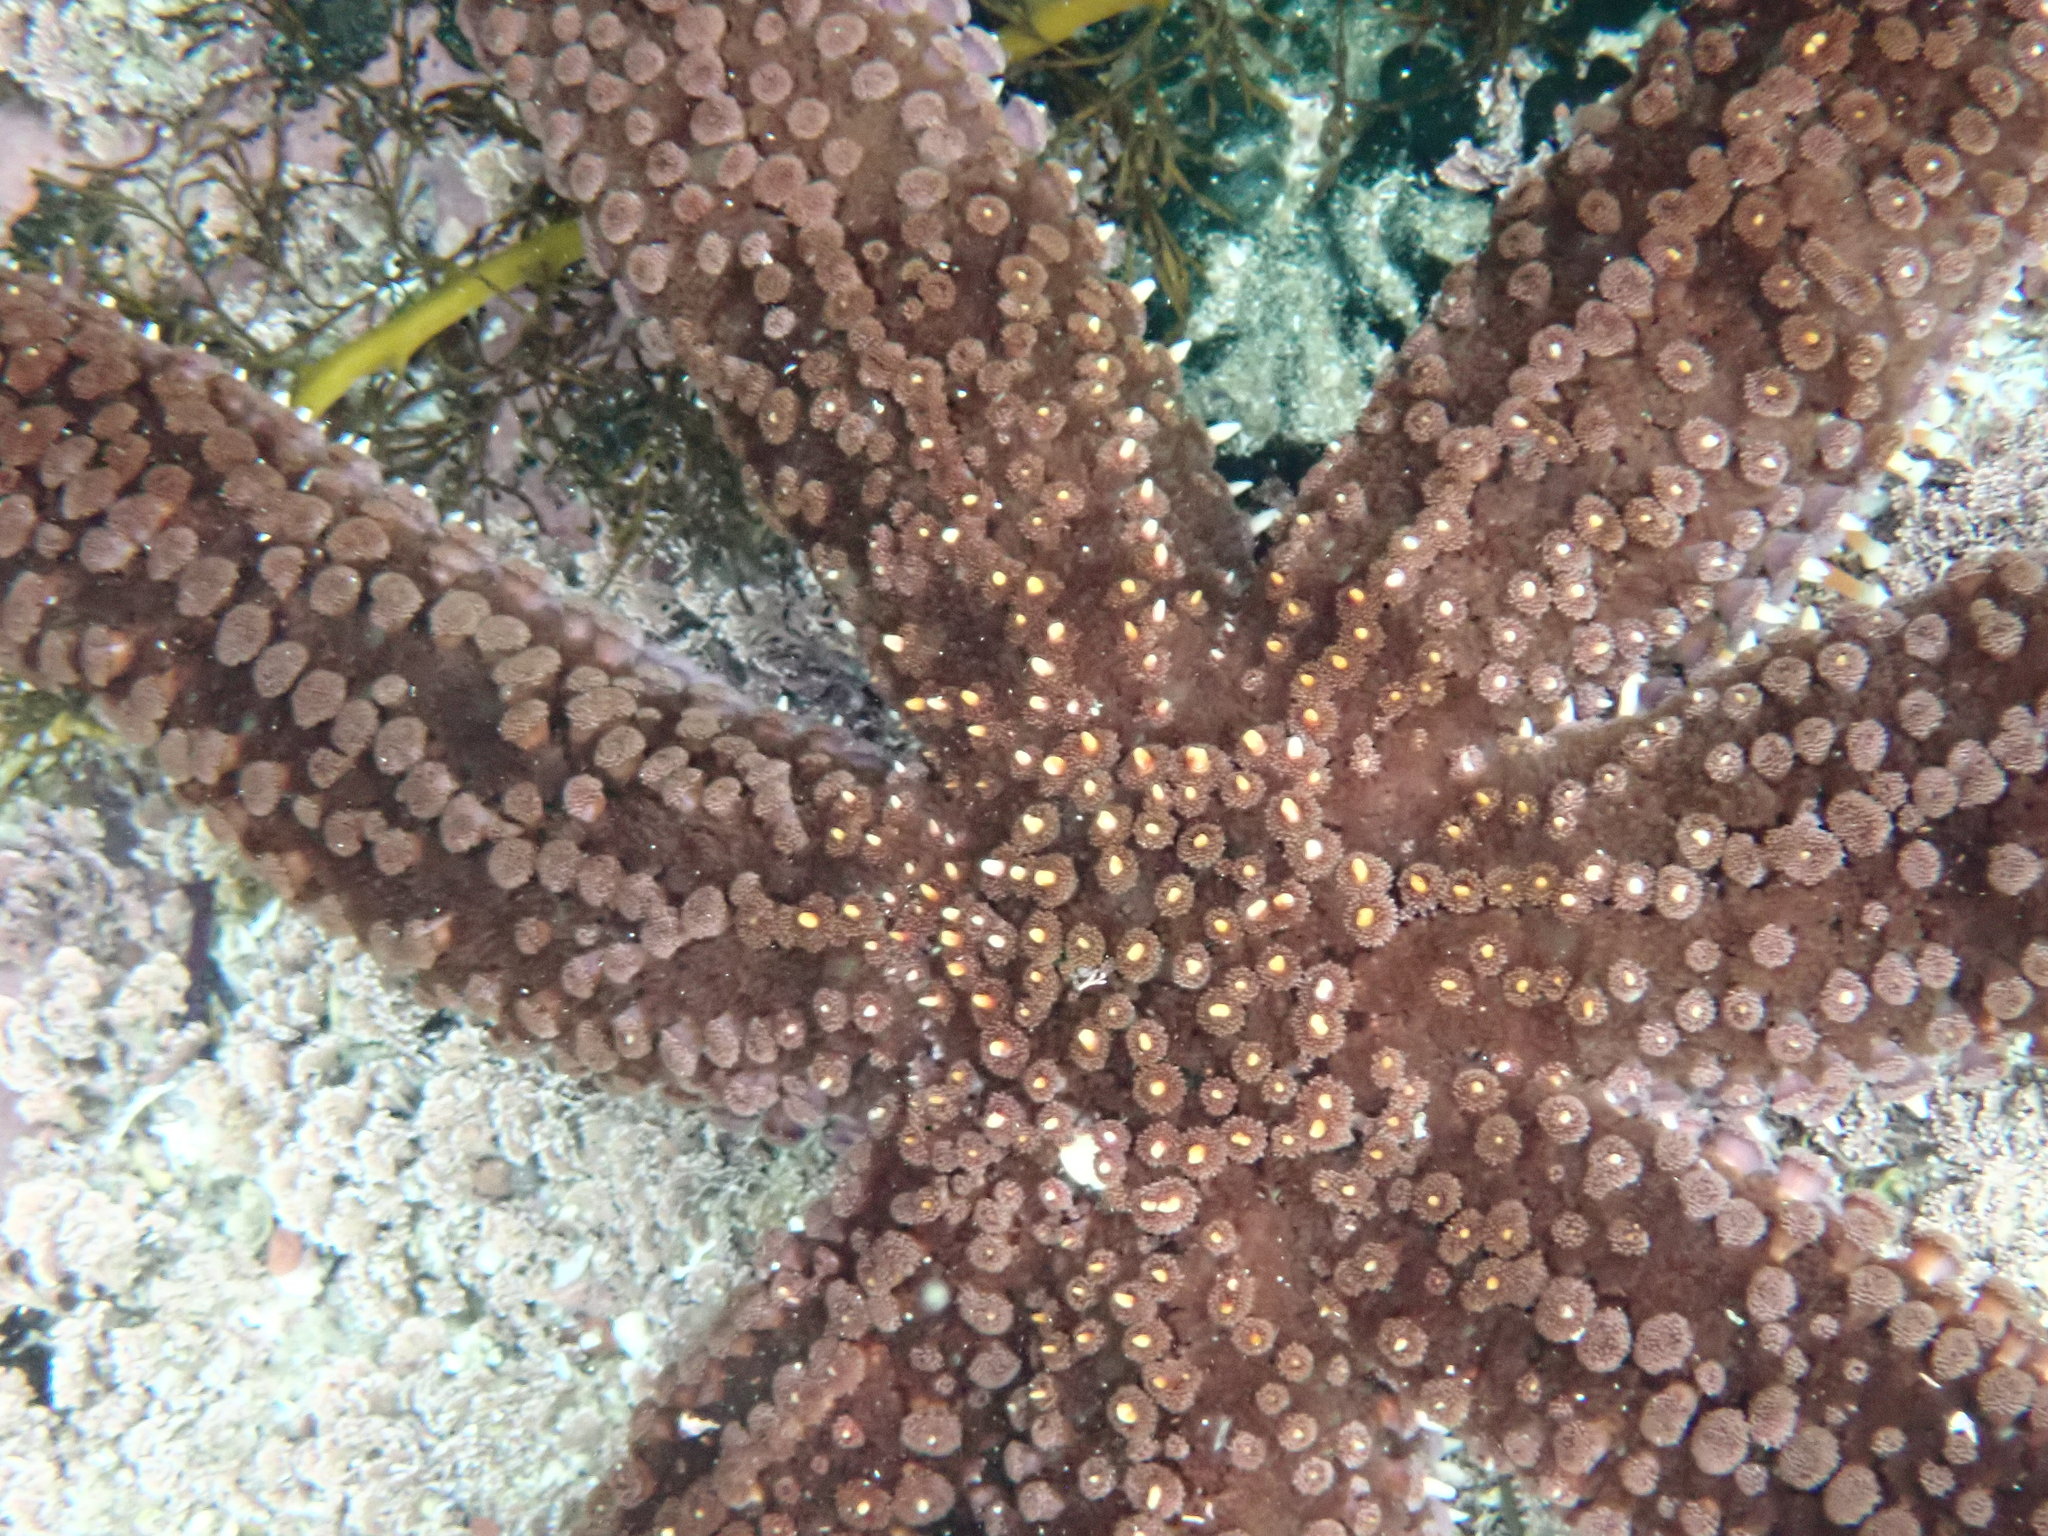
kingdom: Animalia
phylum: Echinodermata
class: Asteroidea
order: Forcipulatida
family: Asteriidae
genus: Astrostole
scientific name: Astrostole scabra
